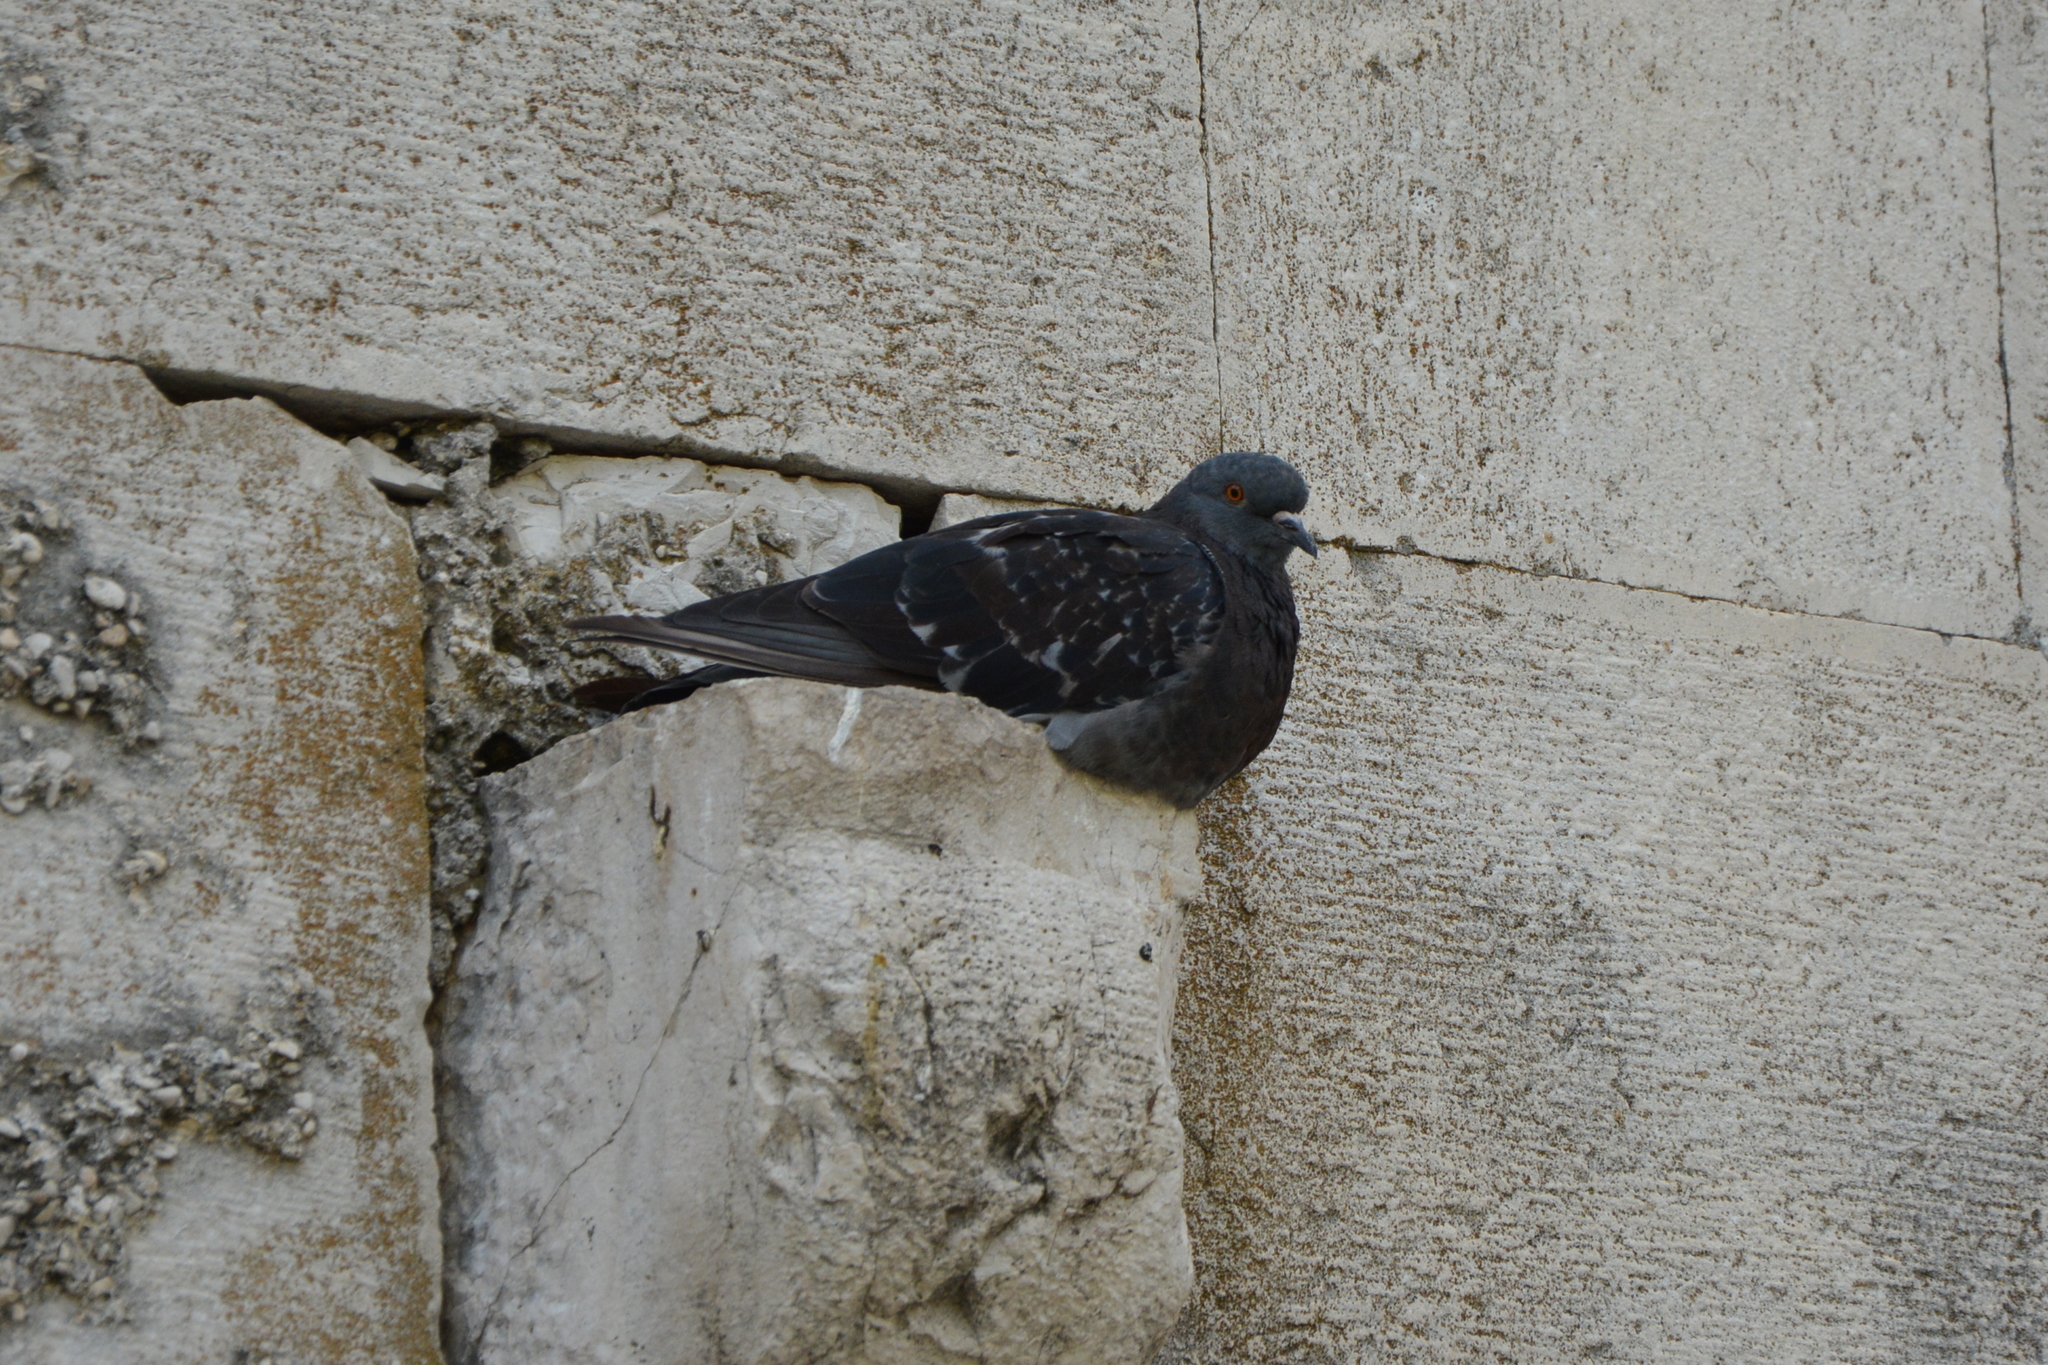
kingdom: Animalia
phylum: Chordata
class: Aves
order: Columbiformes
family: Columbidae
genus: Columba
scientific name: Columba livia
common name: Rock pigeon
